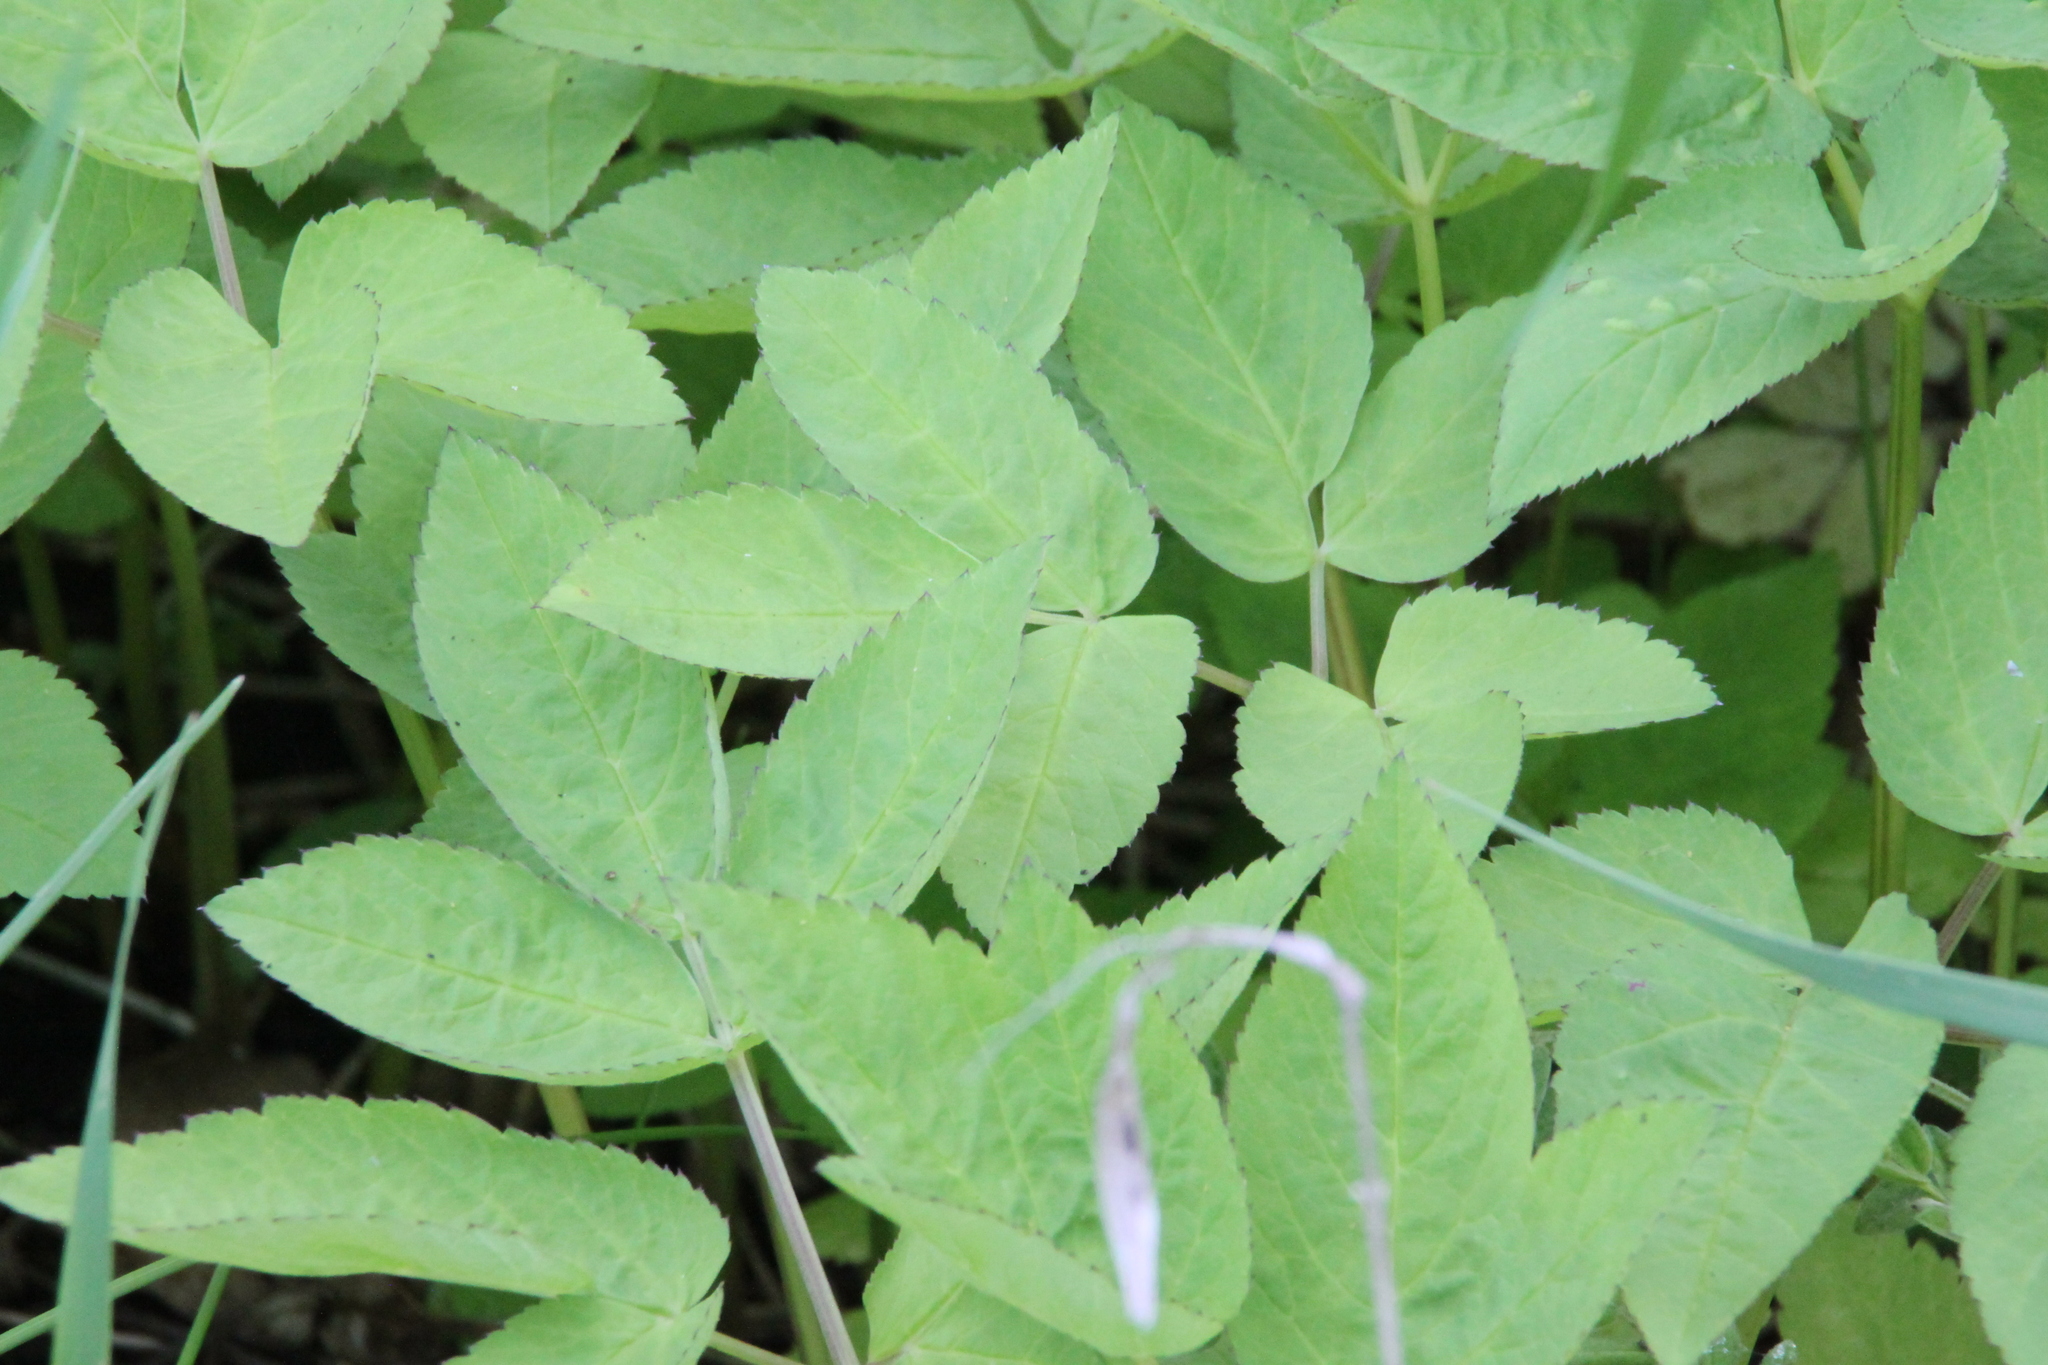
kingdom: Plantae
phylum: Tracheophyta
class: Magnoliopsida
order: Apiales
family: Apiaceae
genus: Aegopodium
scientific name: Aegopodium podagraria
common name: Ground-elder
